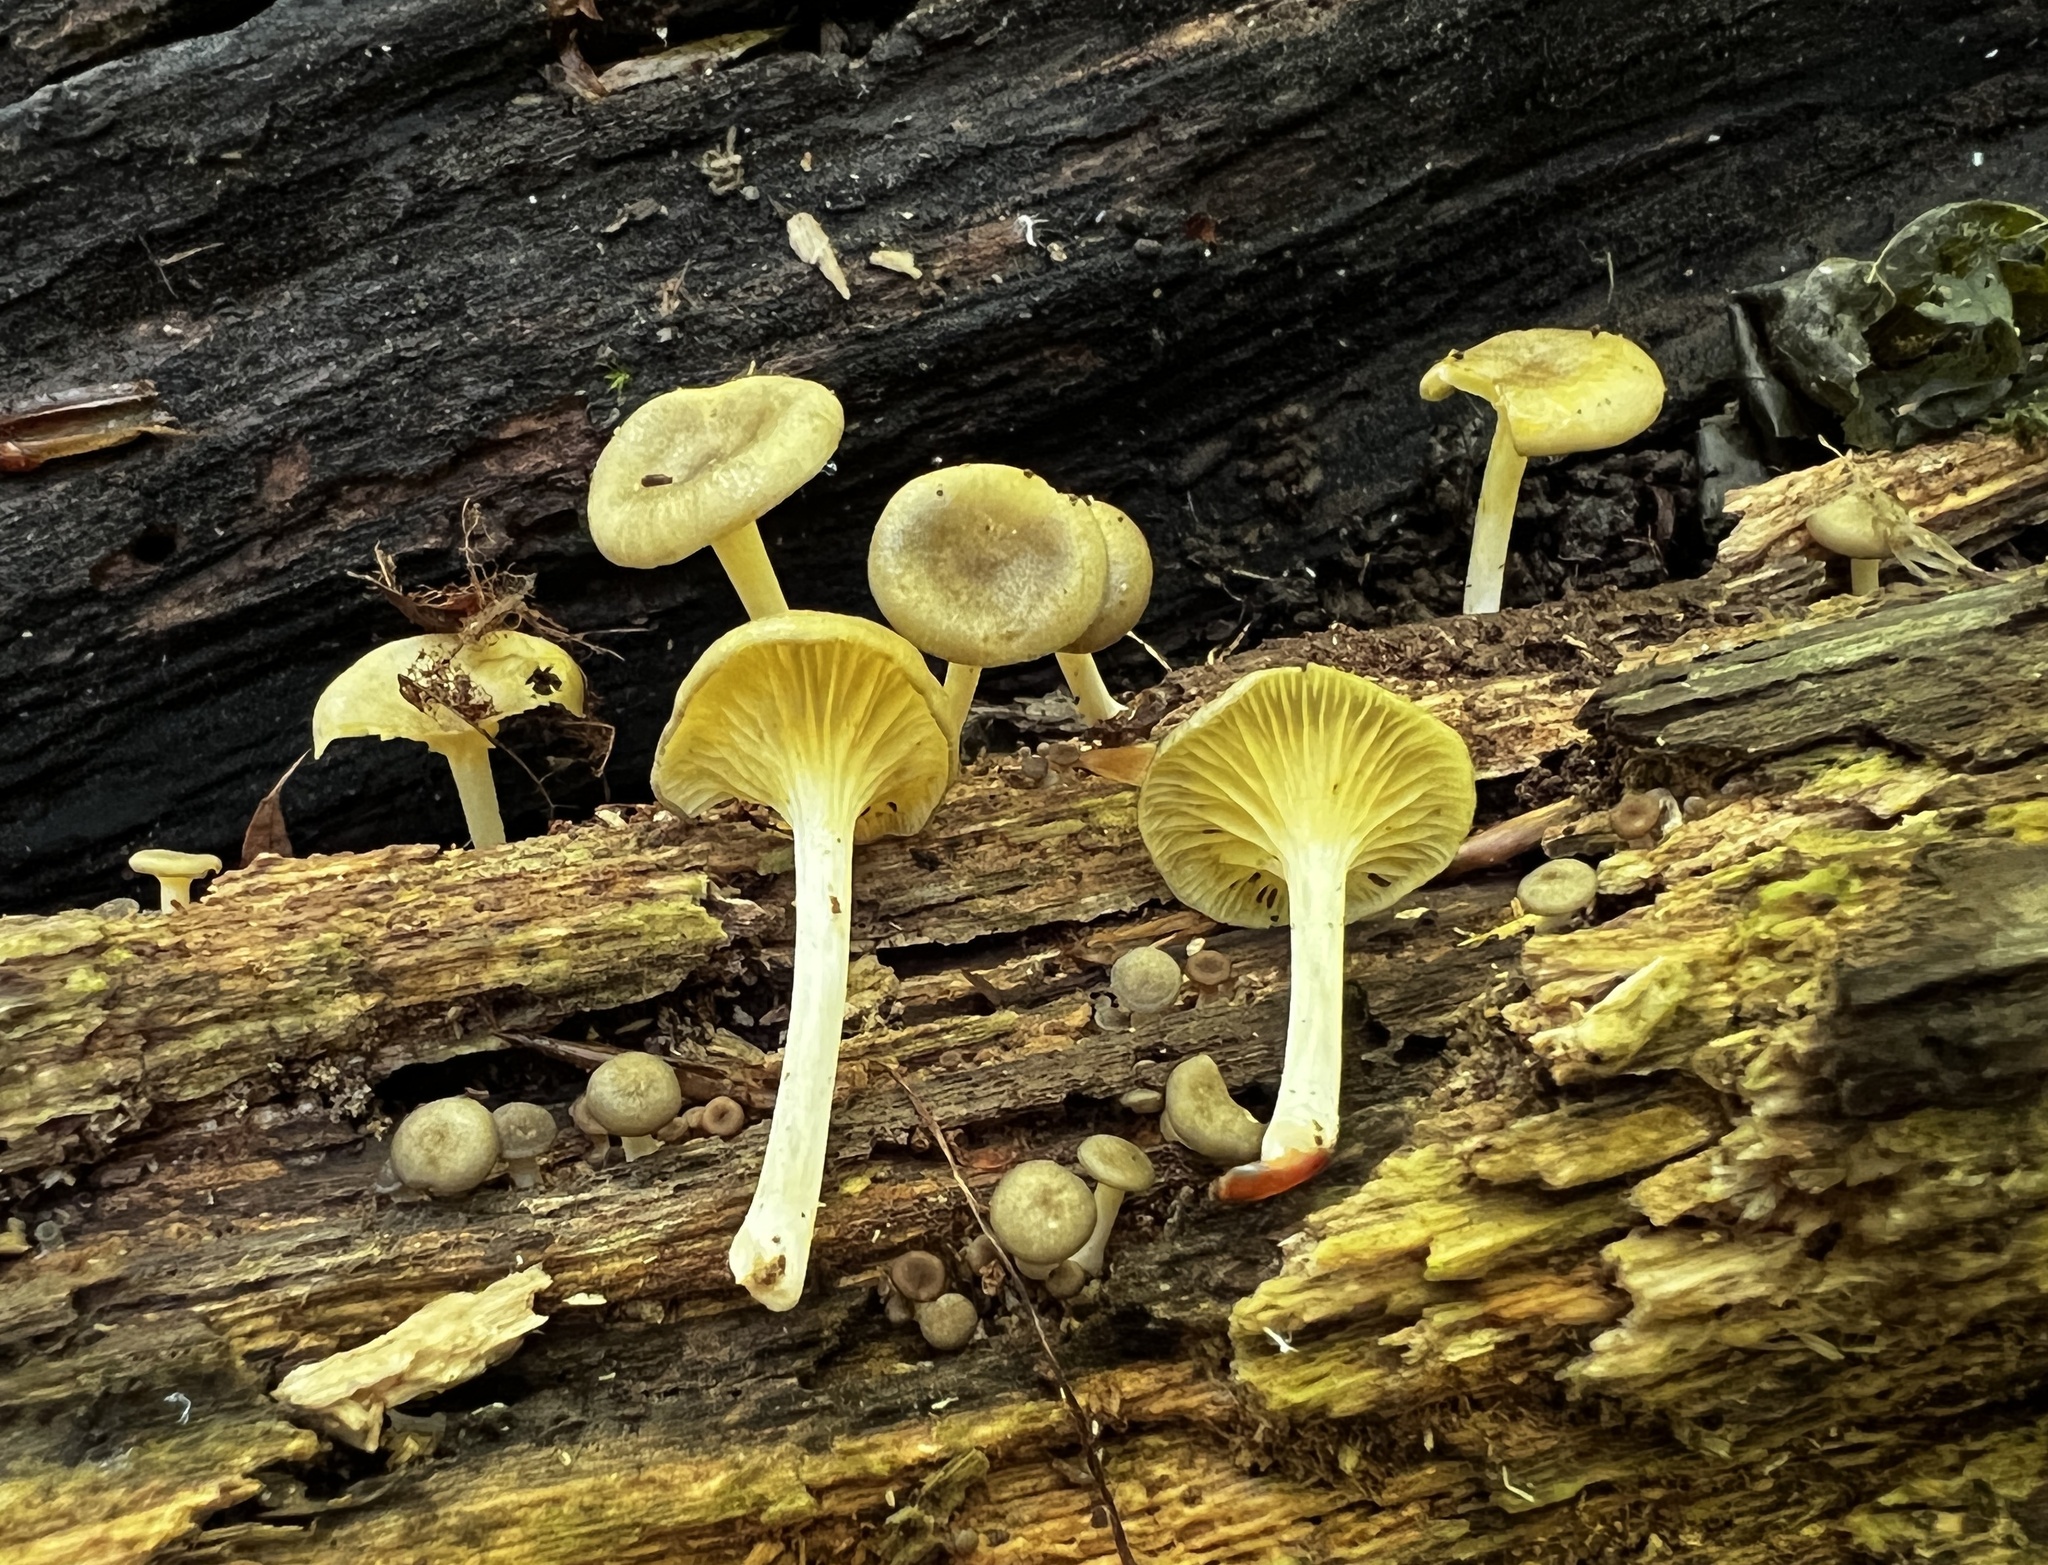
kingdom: Fungi
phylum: Basidiomycota
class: Agaricomycetes
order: Agaricales
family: Marasmiaceae
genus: Gerronema
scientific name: Gerronema strombodes
